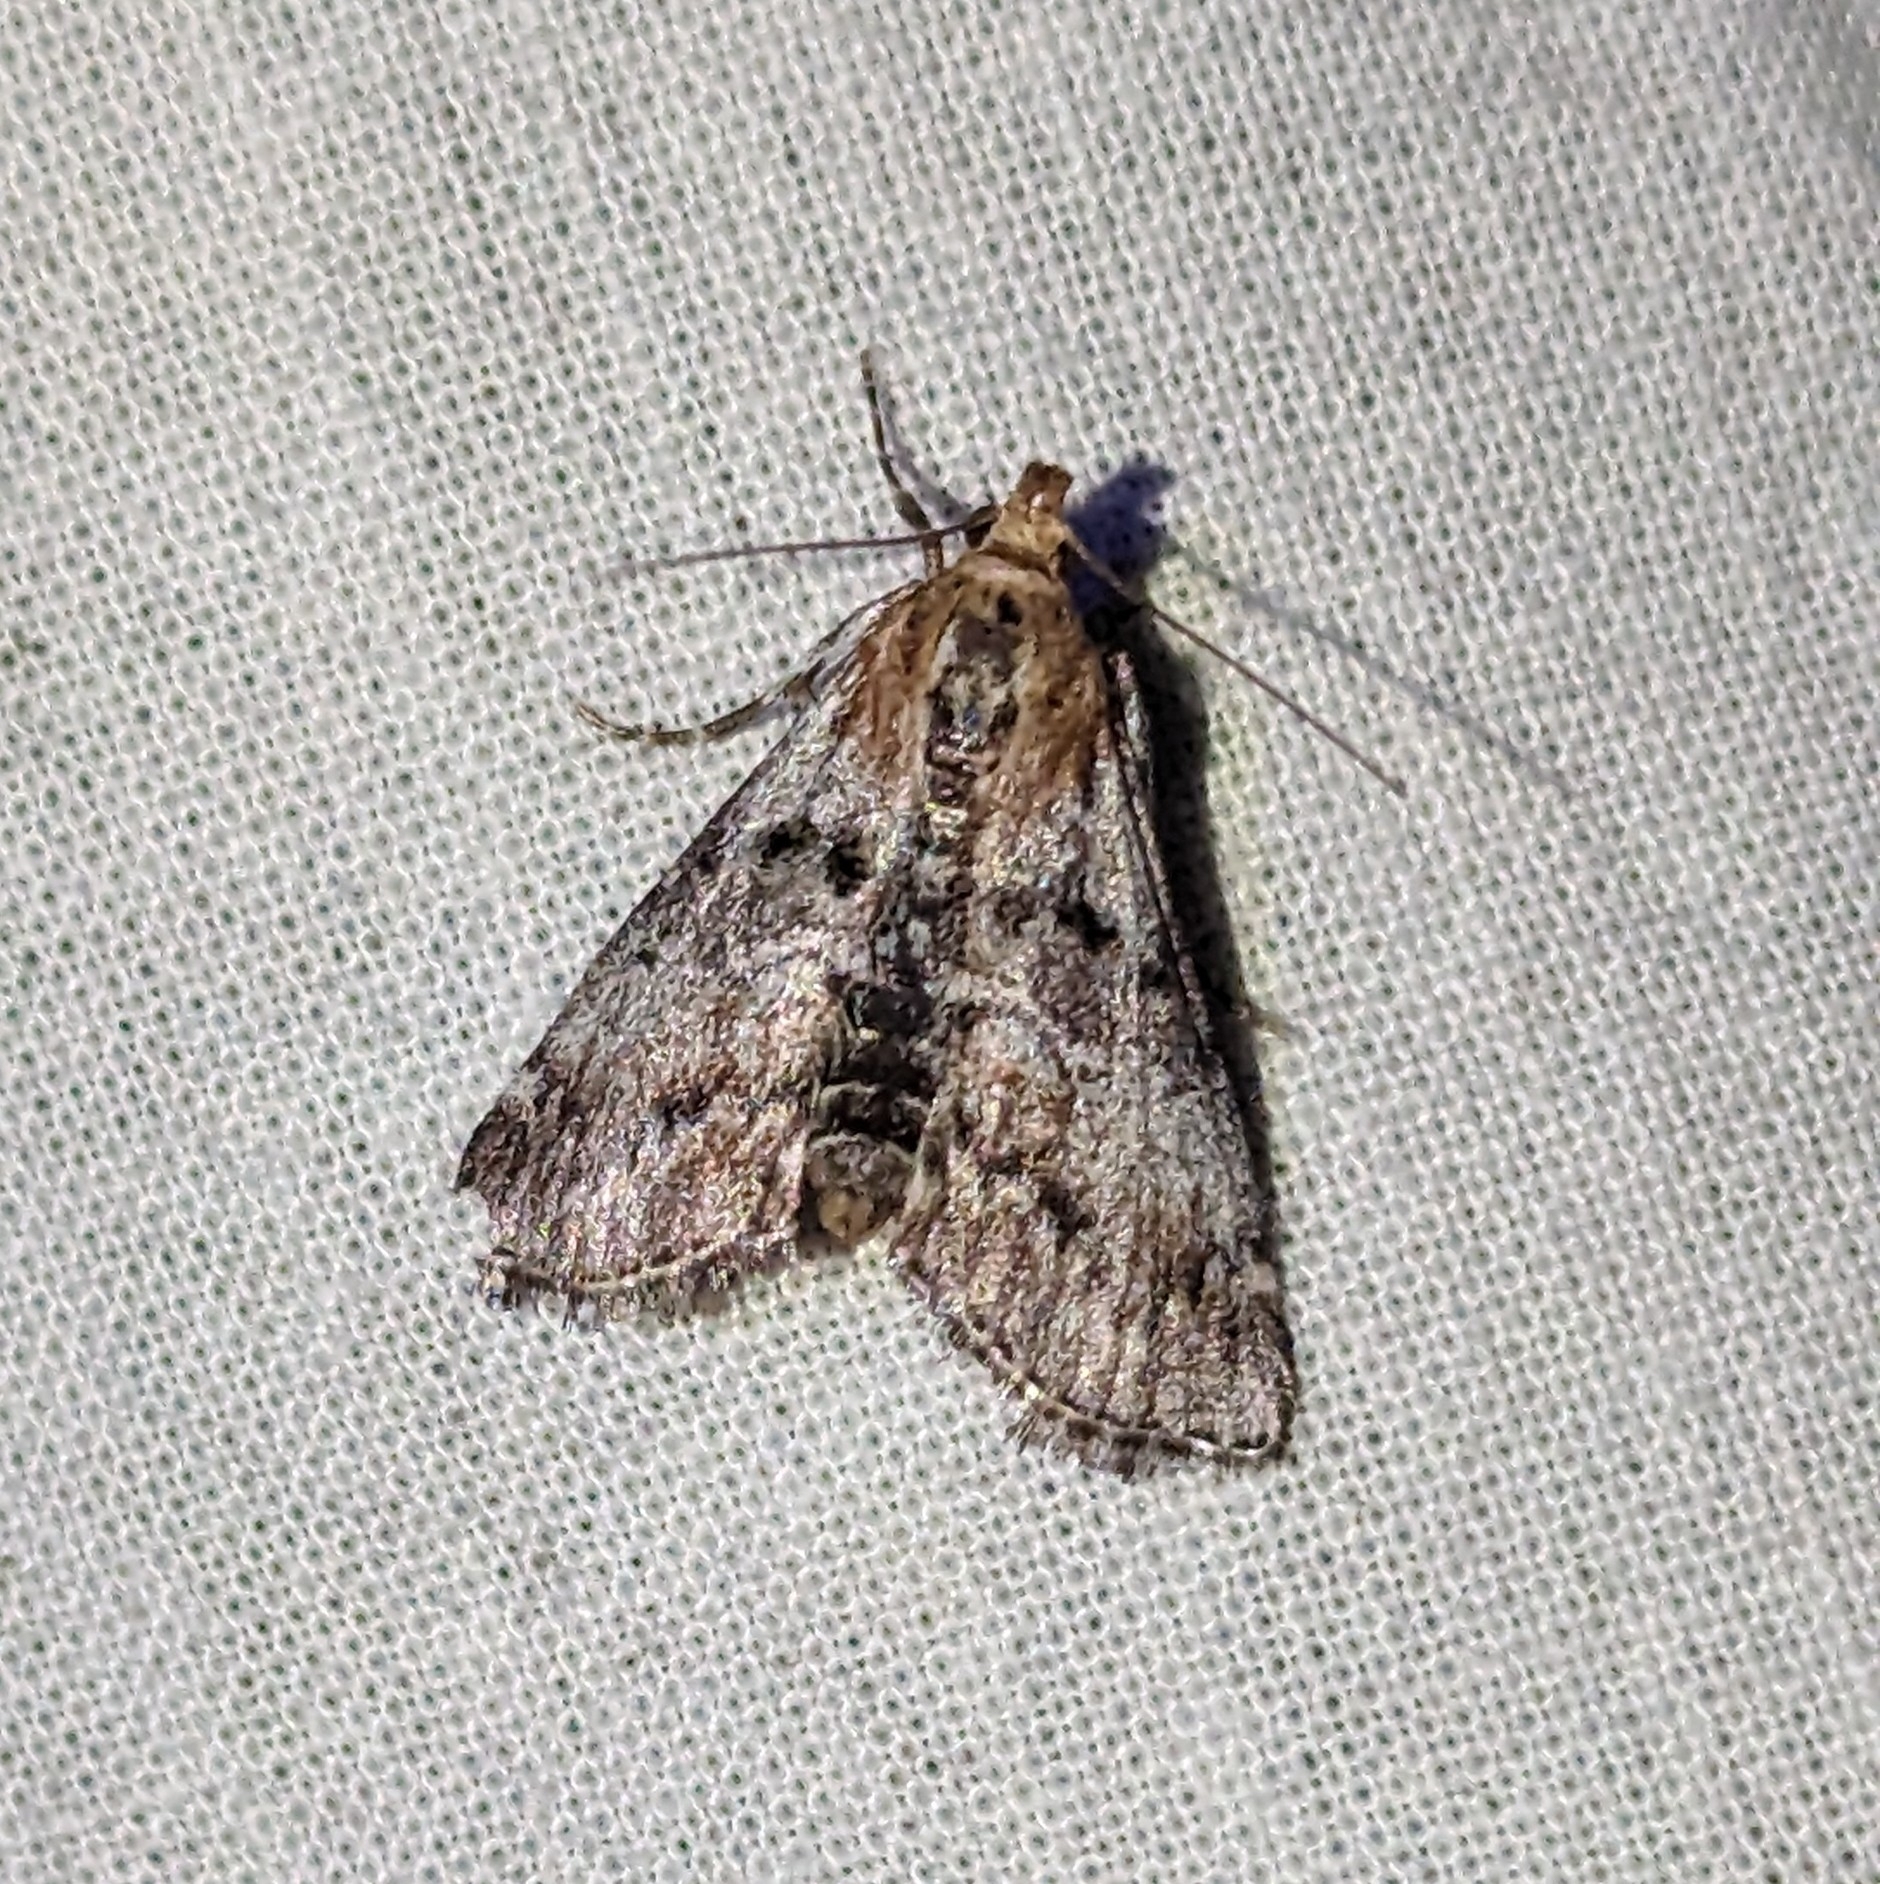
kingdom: Animalia
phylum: Arthropoda
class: Insecta
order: Lepidoptera
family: Pyralidae
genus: Toripalpus
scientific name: Toripalpus trabalis
